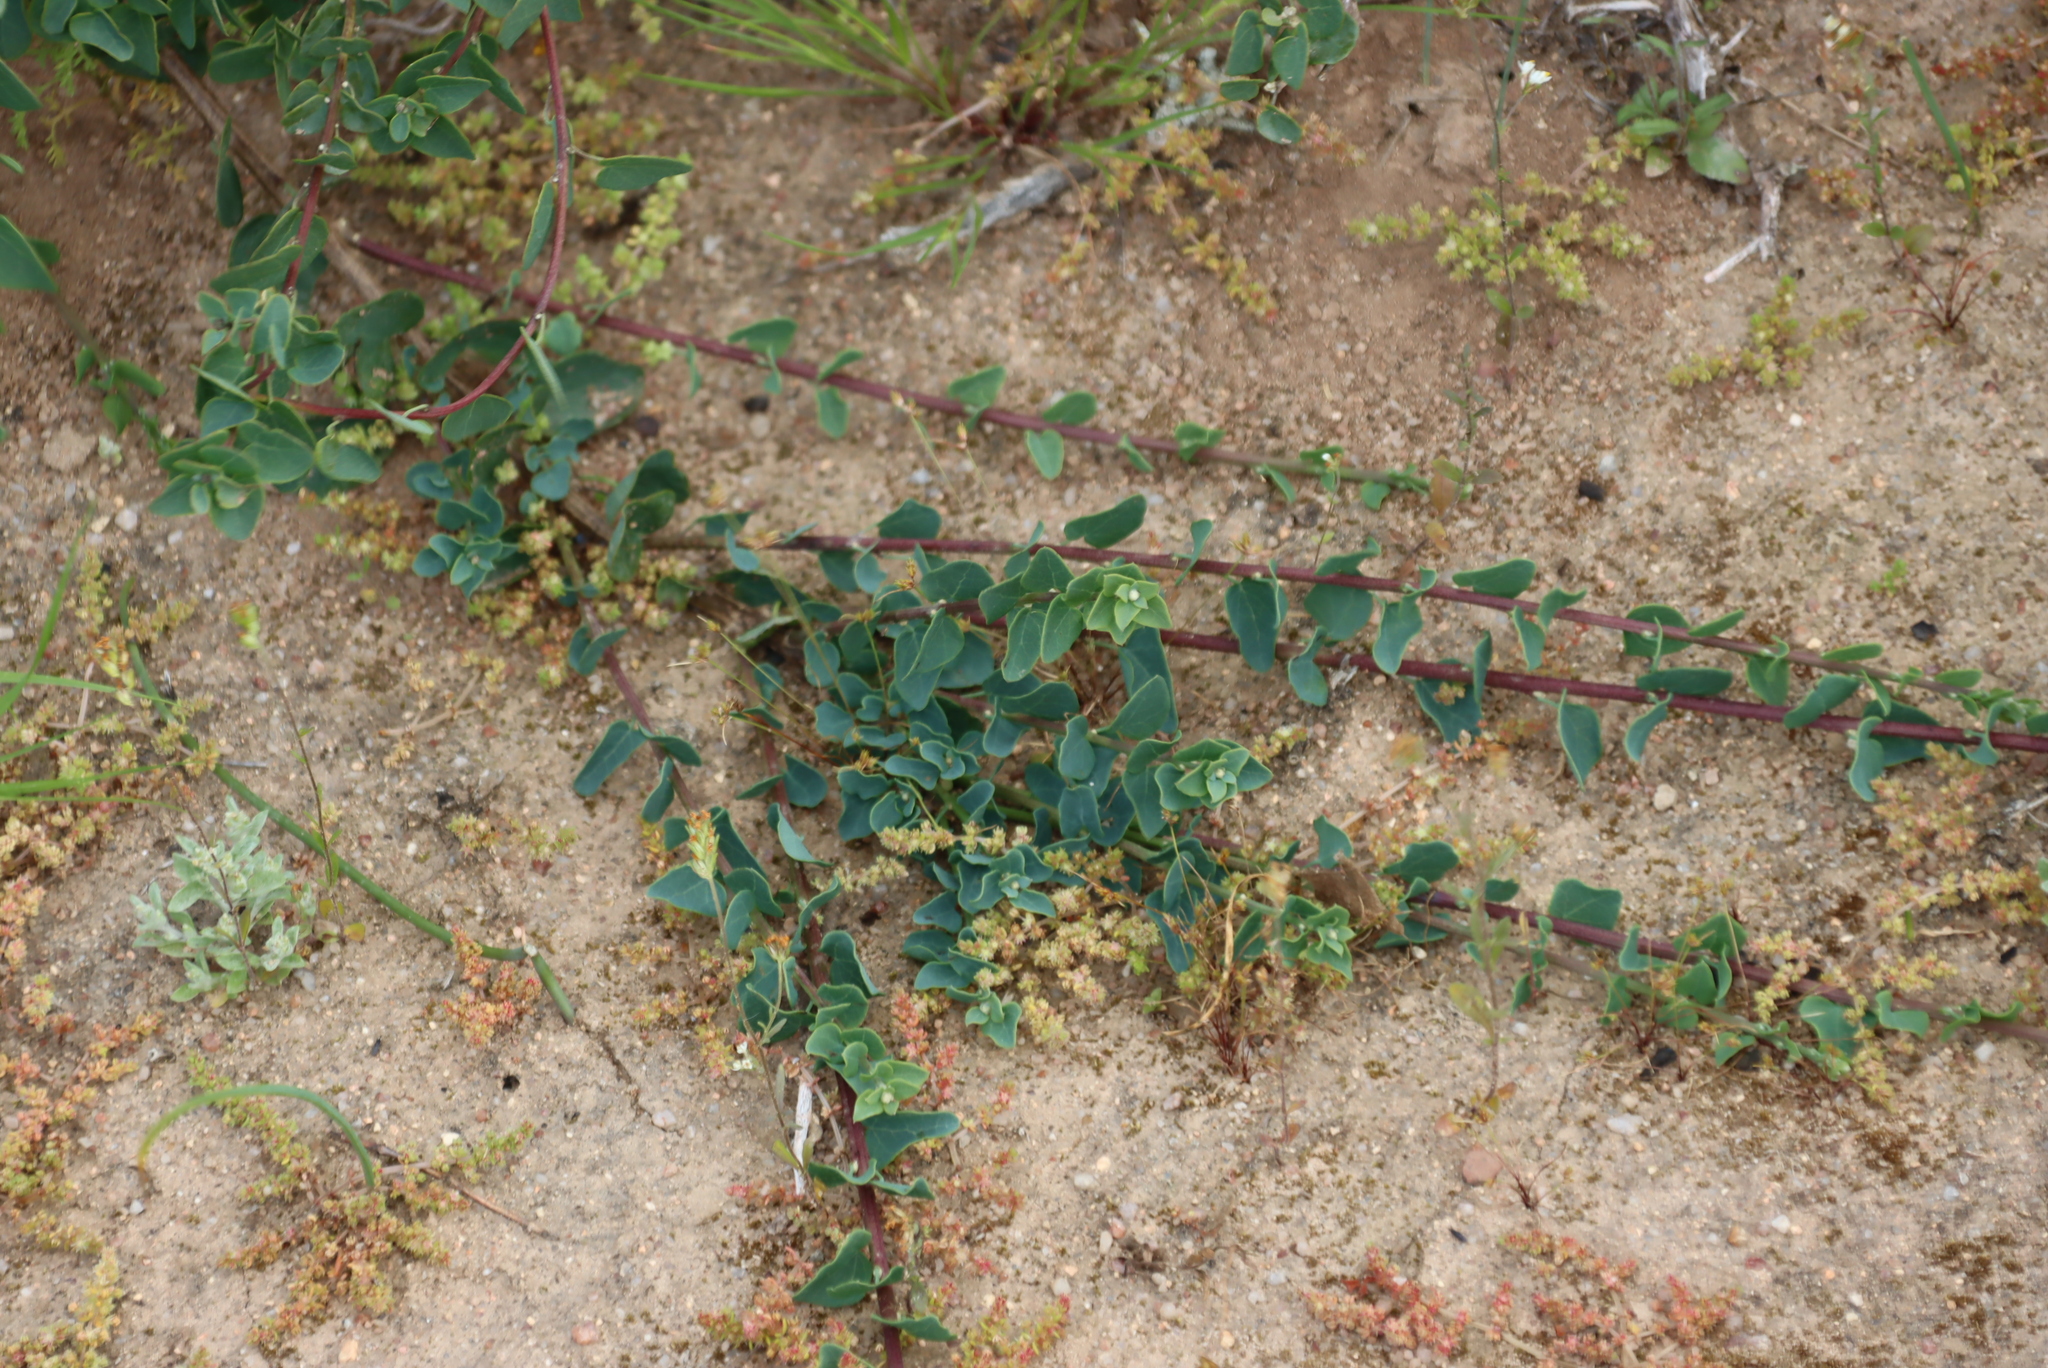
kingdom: Plantae
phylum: Tracheophyta
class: Magnoliopsida
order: Ranunculales
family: Menispermaceae
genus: Cissampelos
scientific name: Cissampelos capensis
